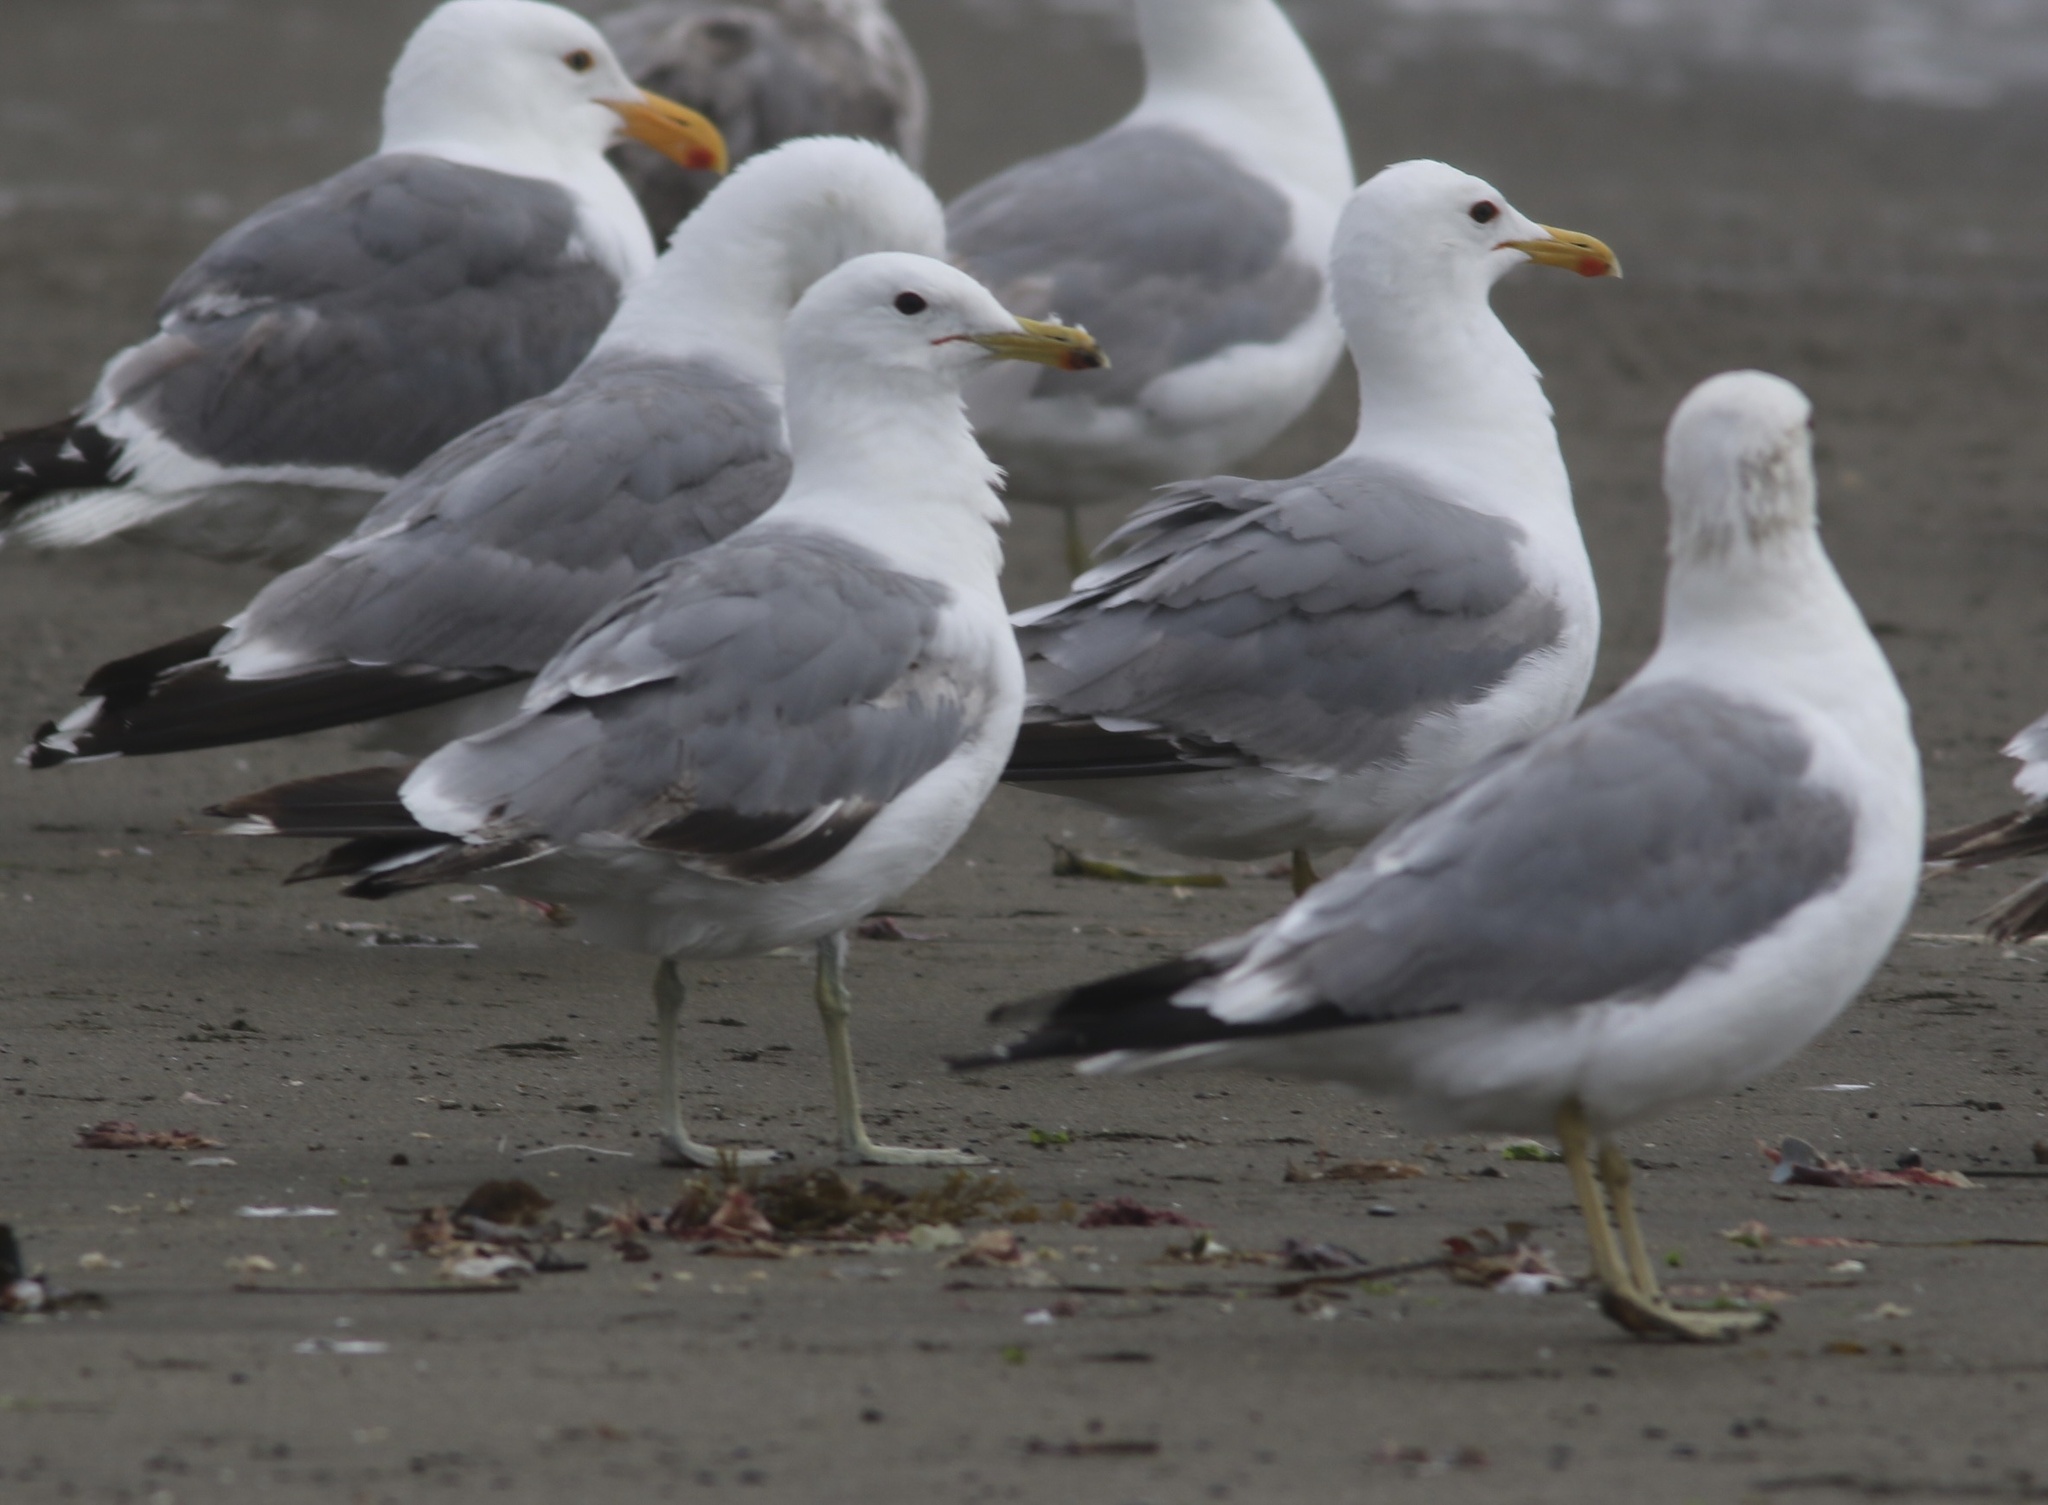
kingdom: Animalia
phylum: Chordata
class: Aves
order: Charadriiformes
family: Laridae
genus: Larus
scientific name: Larus californicus
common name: California gull
